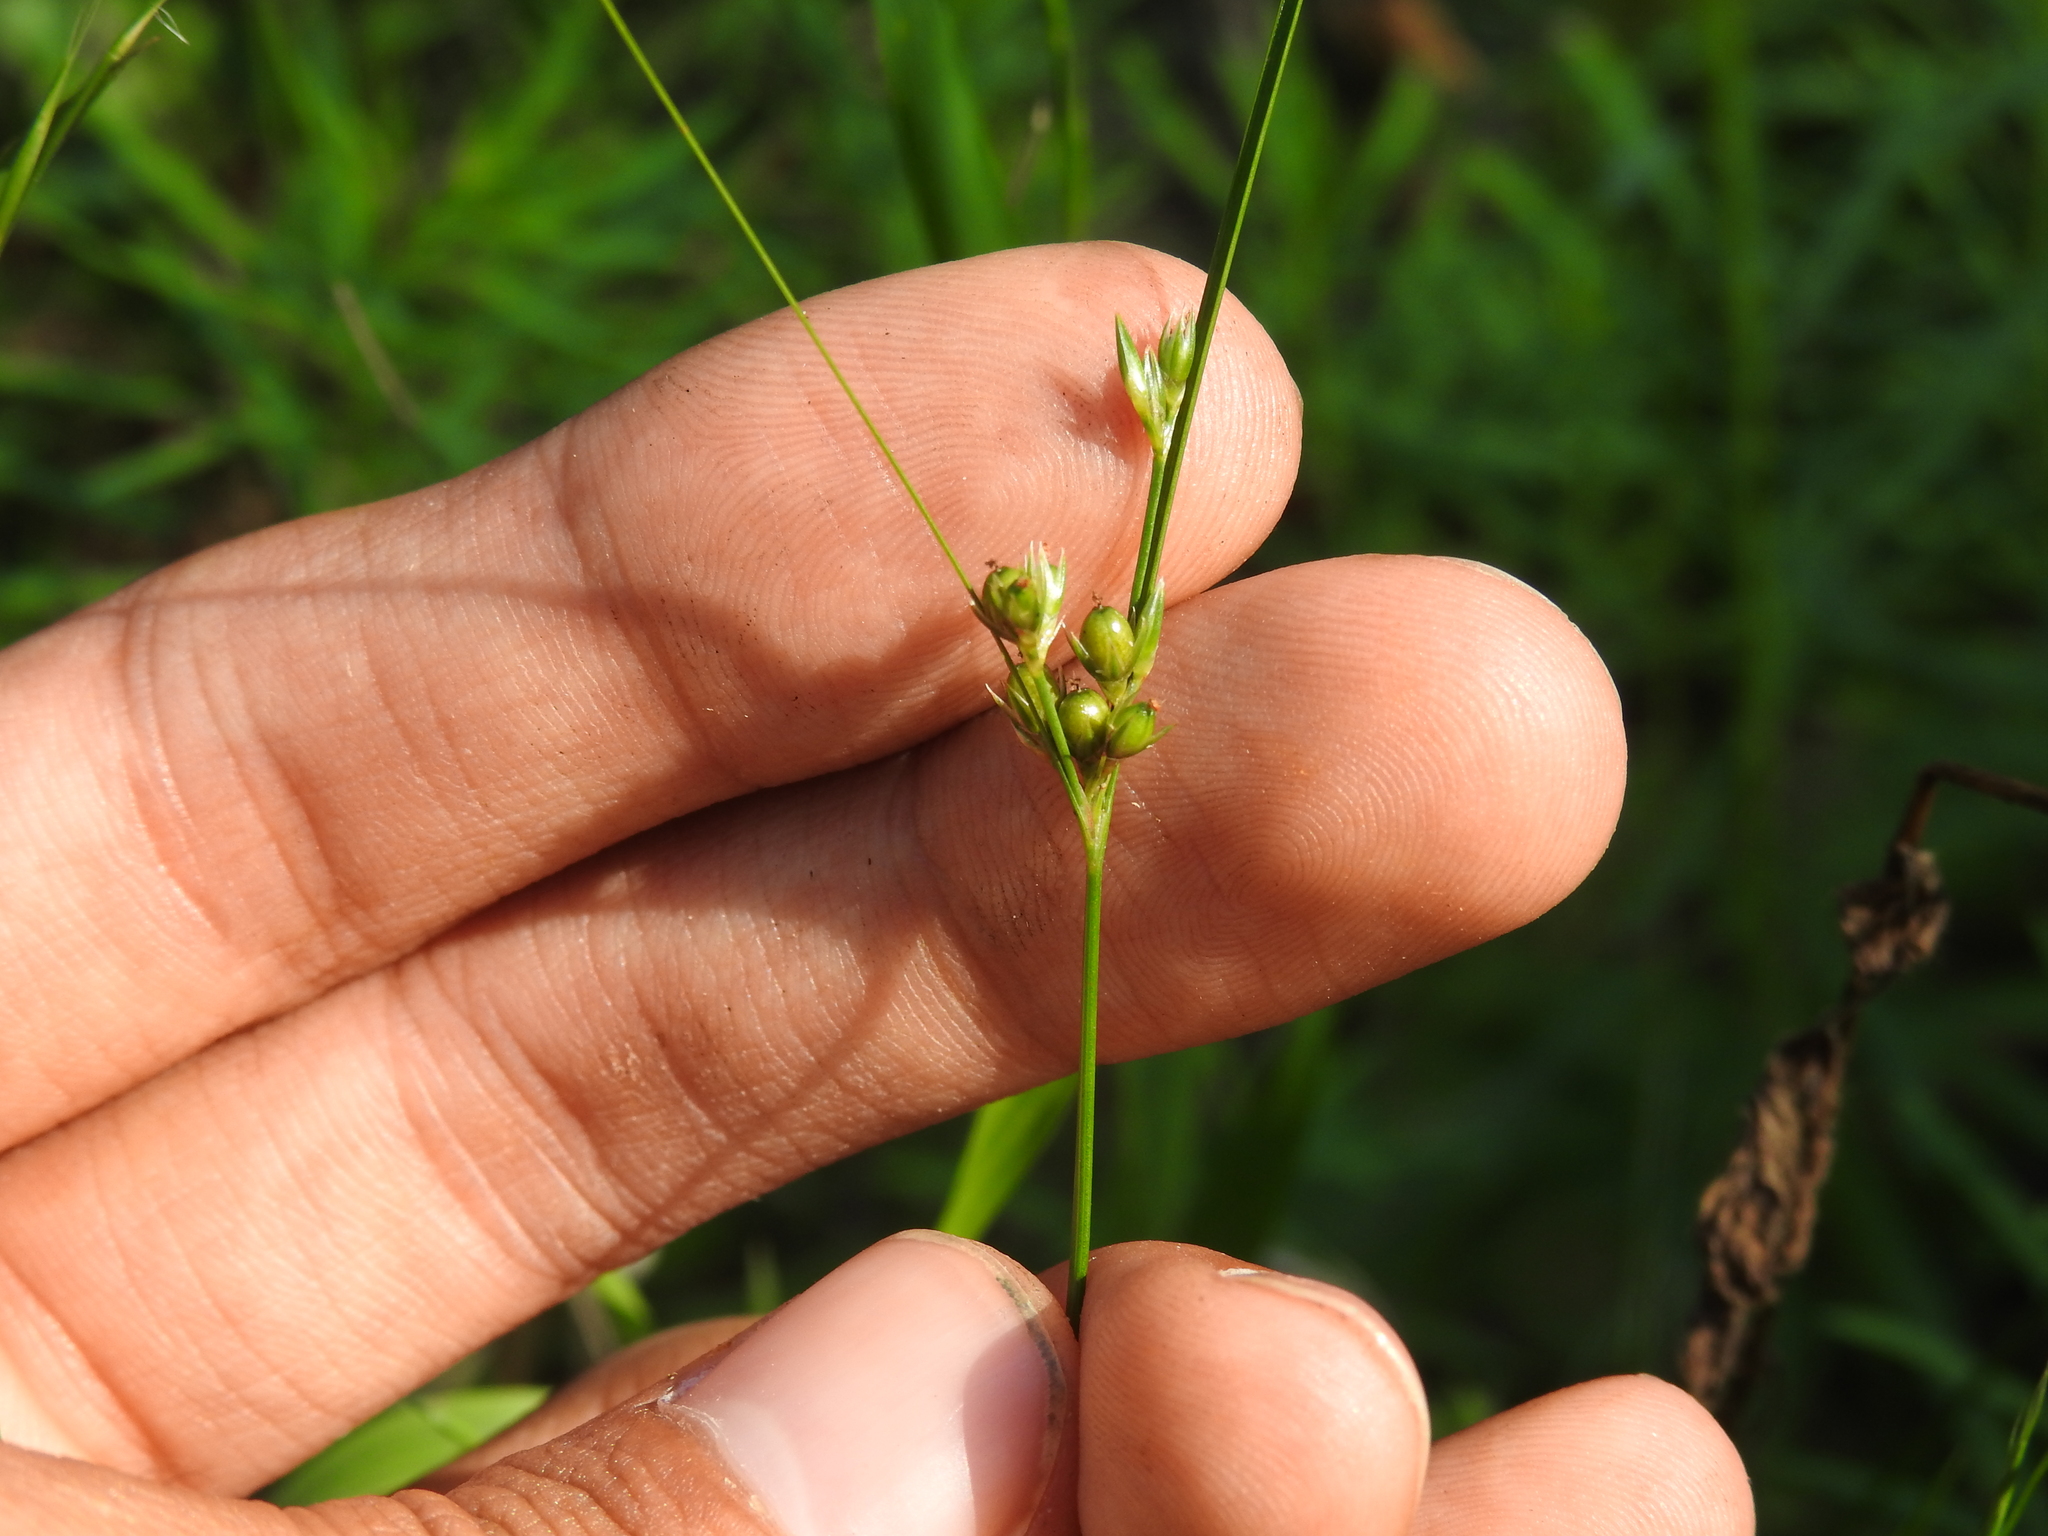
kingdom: Plantae
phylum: Tracheophyta
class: Liliopsida
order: Poales
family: Juncaceae
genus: Juncus
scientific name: Juncus tenuis
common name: Slender rush
